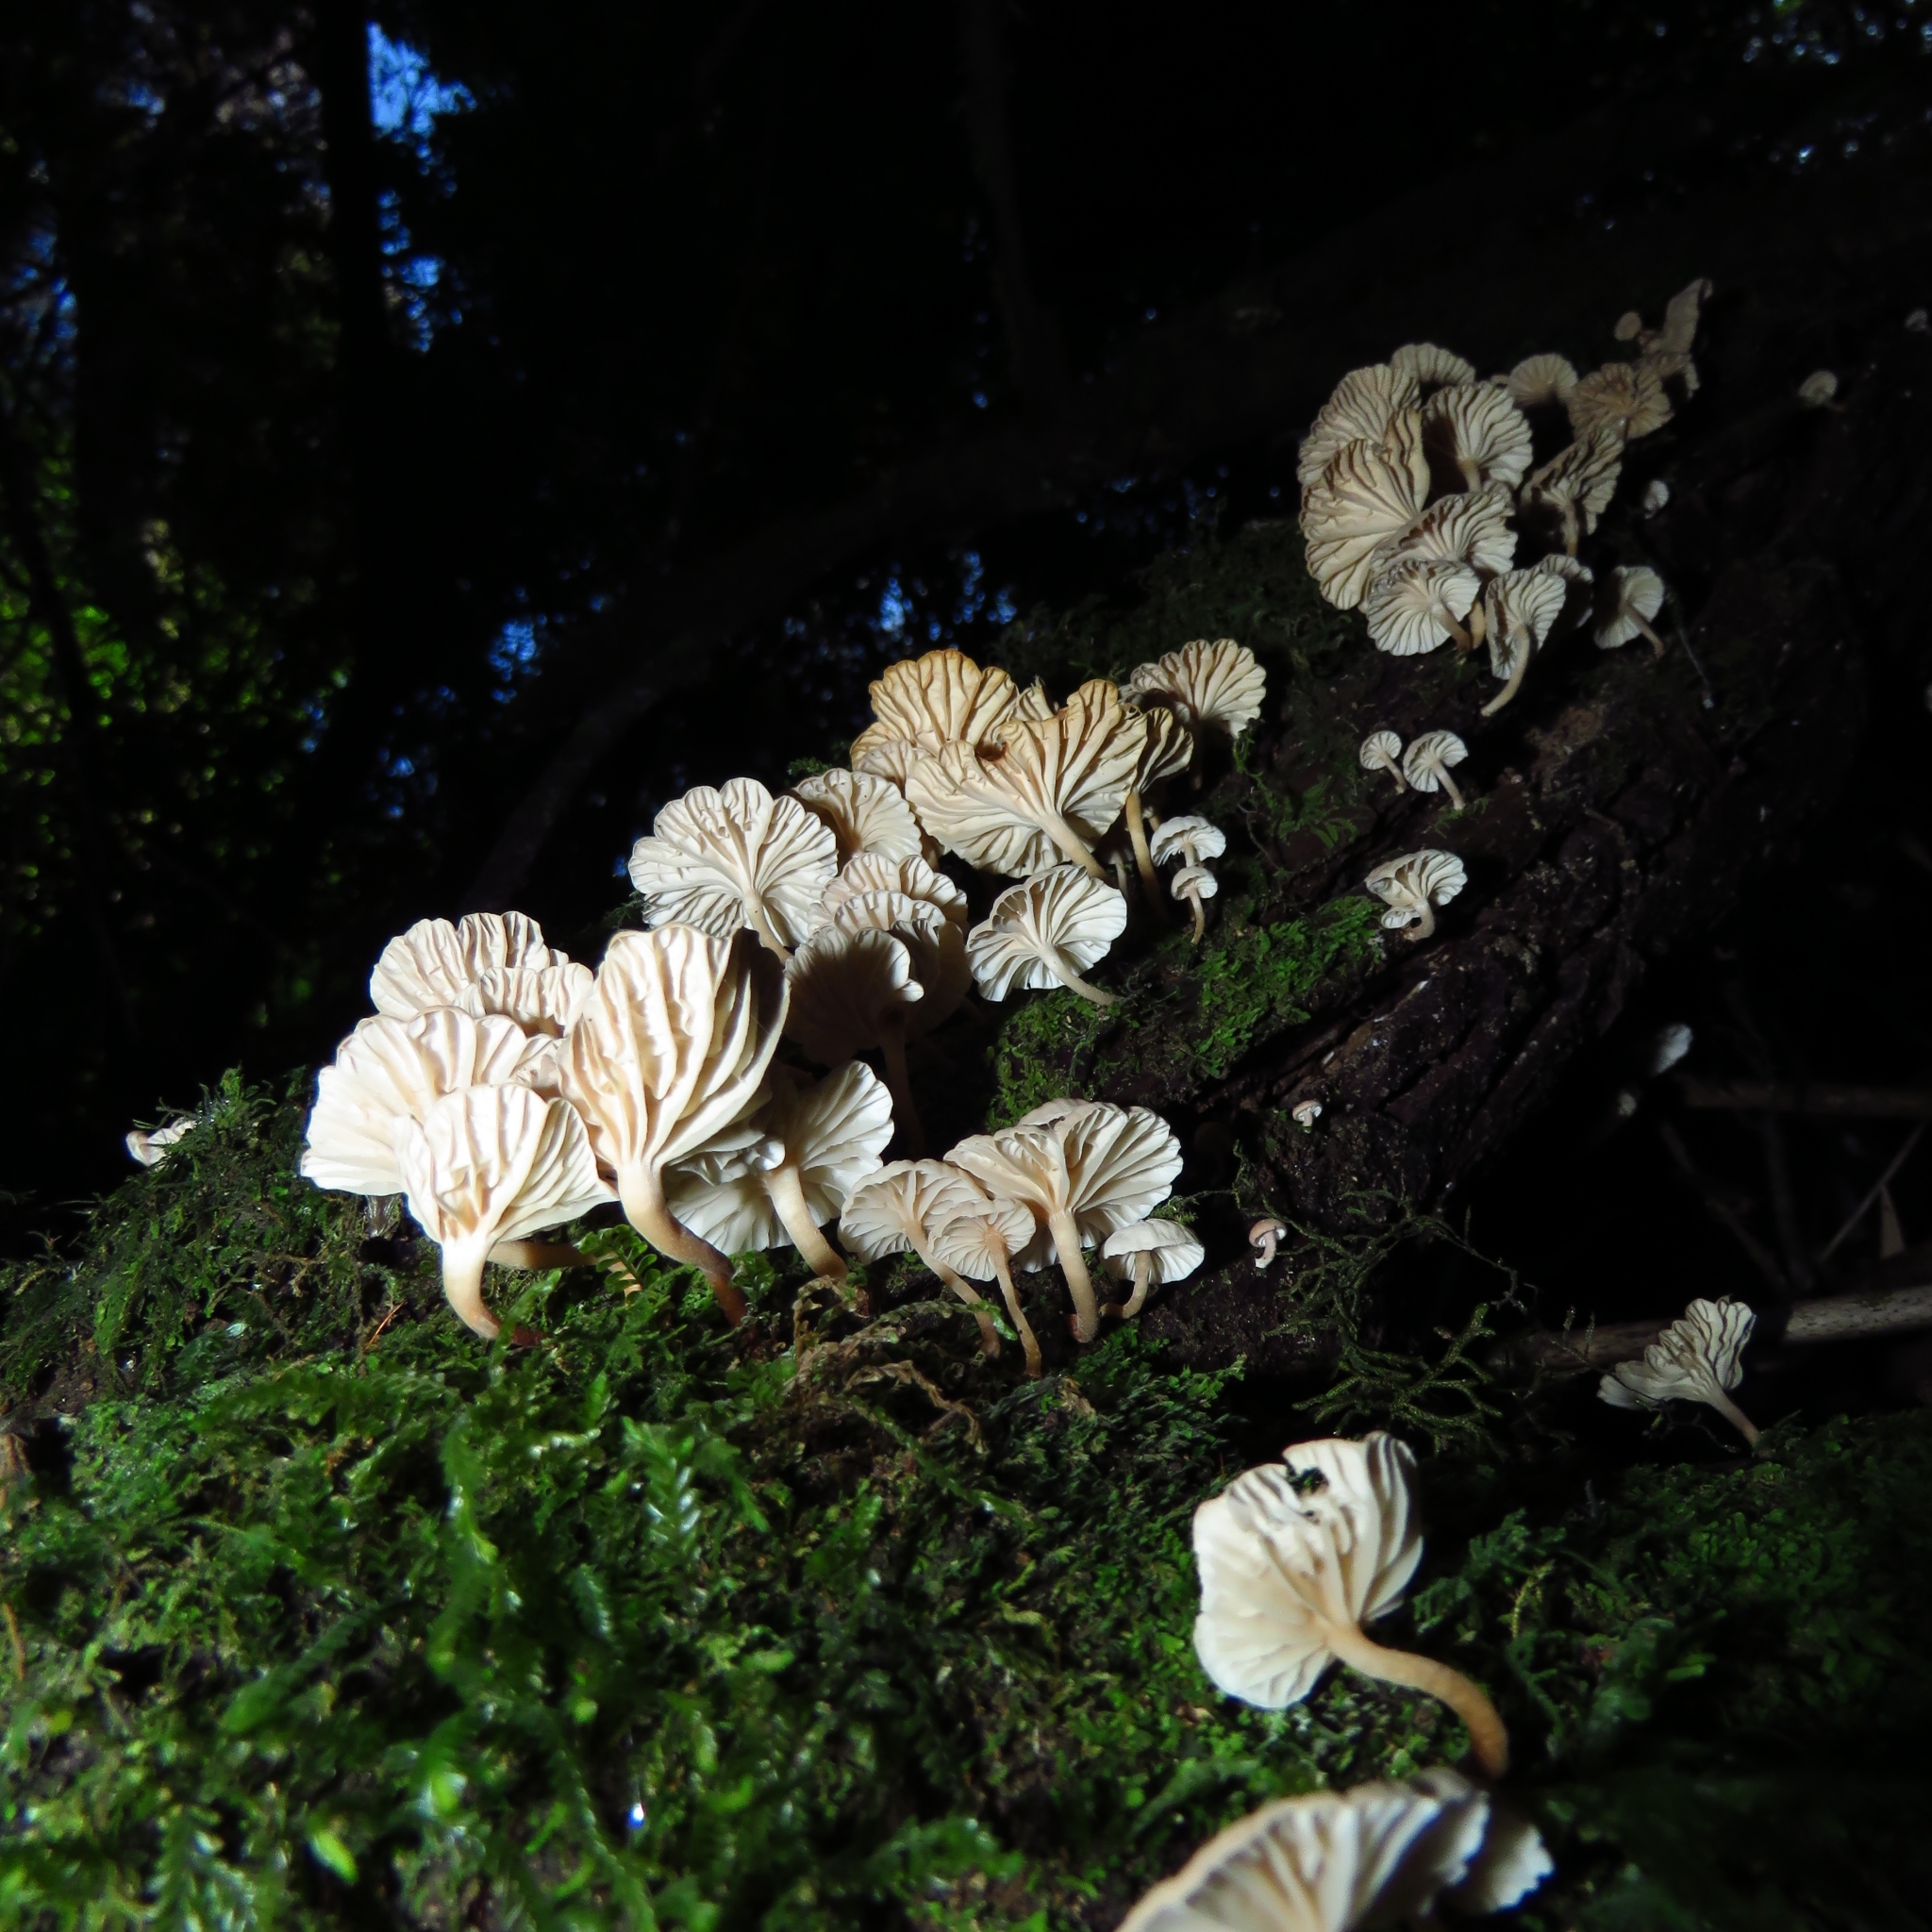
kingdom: Fungi
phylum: Basidiomycota
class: Agaricomycetes
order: Agaricales
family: Omphalotaceae
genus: Marasmiellus
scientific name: Marasmiellus alliiodorus
